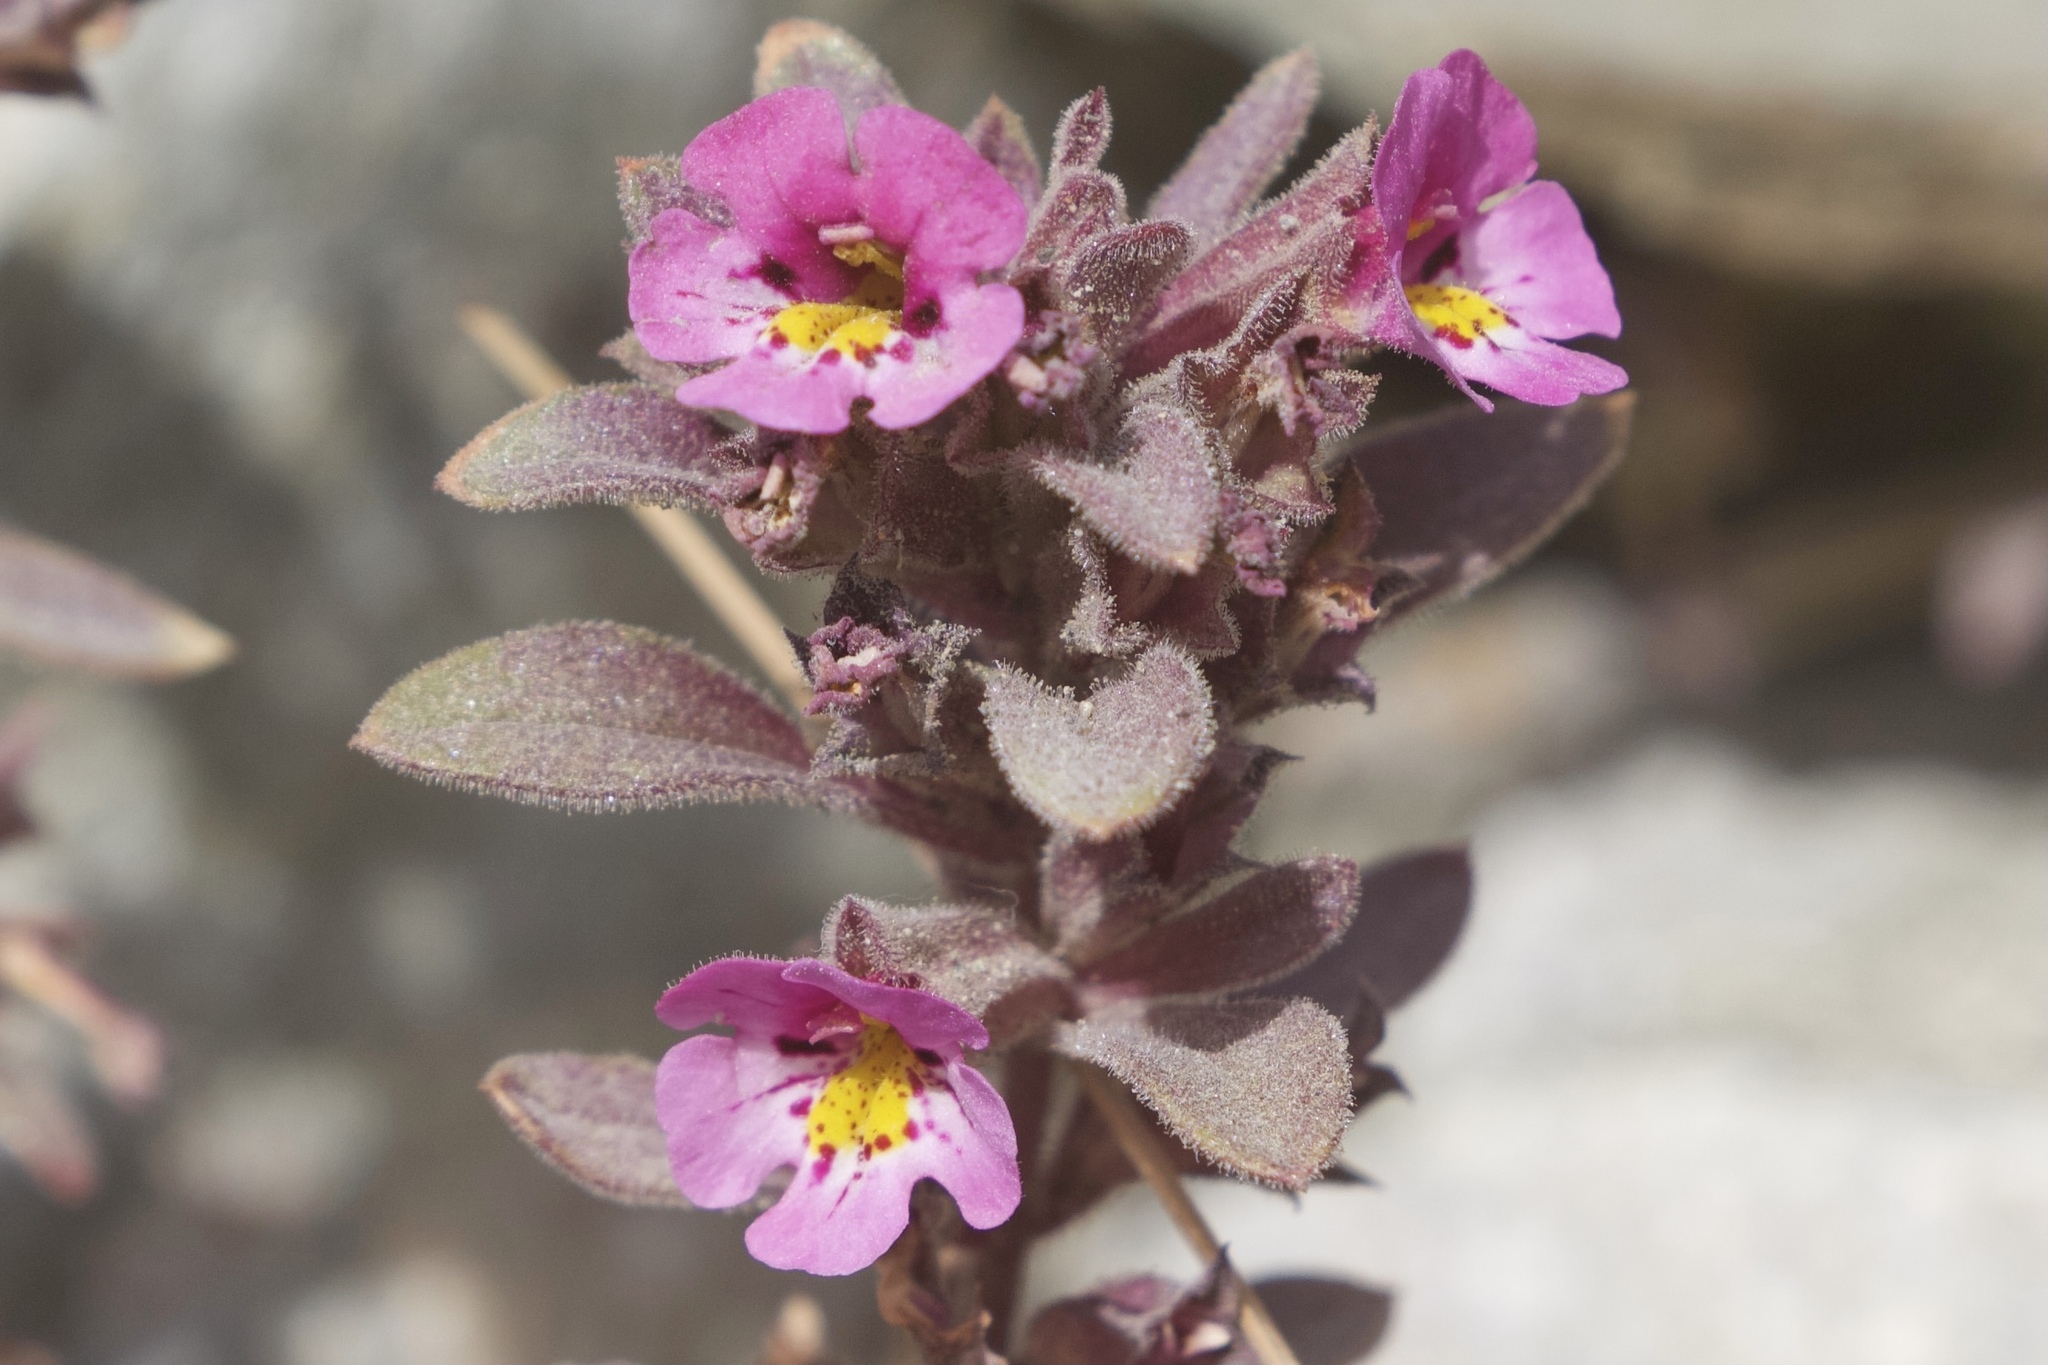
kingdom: Plantae
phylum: Tracheophyta
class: Magnoliopsida
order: Lamiales
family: Phrymaceae
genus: Diplacus
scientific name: Diplacus johnstonii
